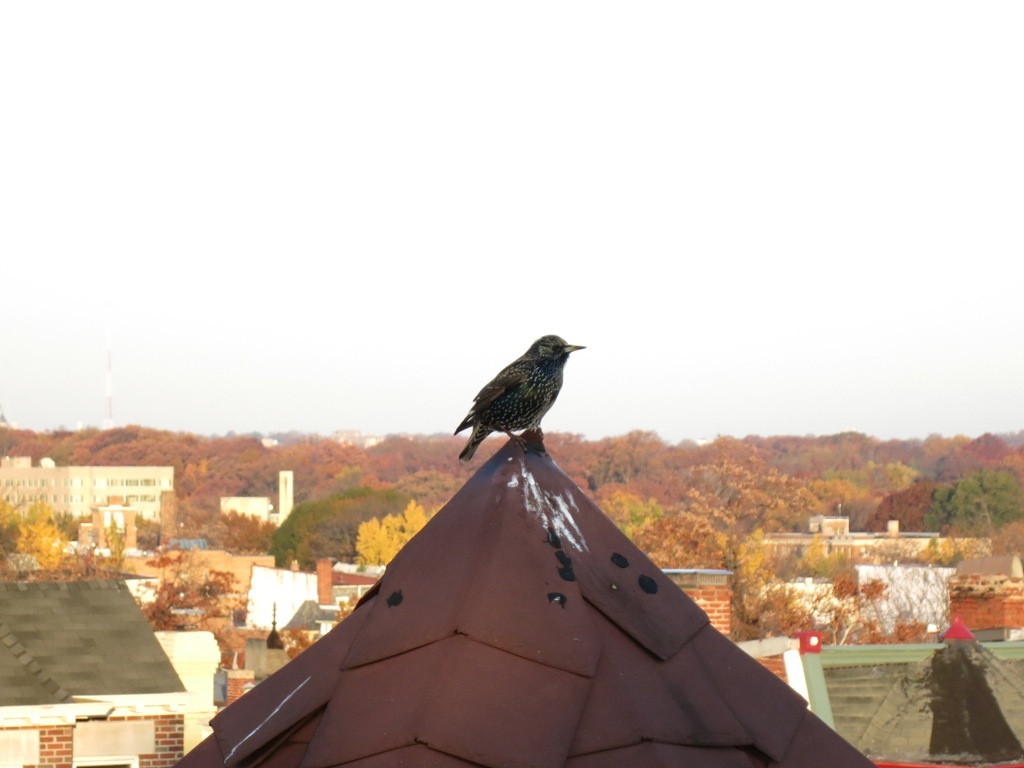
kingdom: Animalia
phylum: Chordata
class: Aves
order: Passeriformes
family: Sturnidae
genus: Sturnus
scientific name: Sturnus vulgaris
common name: Common starling
